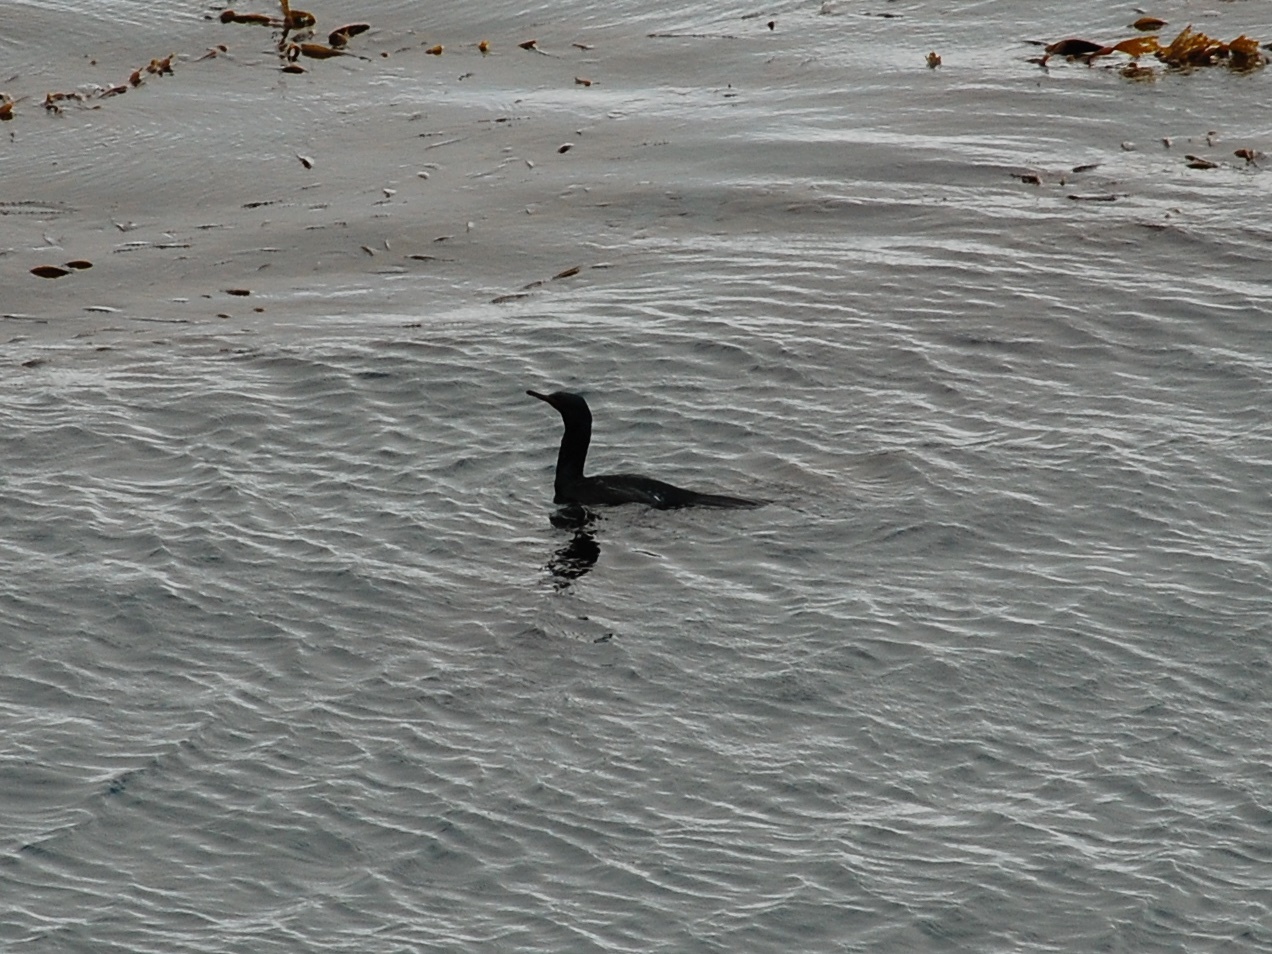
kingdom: Animalia
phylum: Chordata
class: Aves
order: Suliformes
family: Phalacrocoracidae
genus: Phalacrocorax
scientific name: Phalacrocorax pelagicus
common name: Pelagic cormorant
